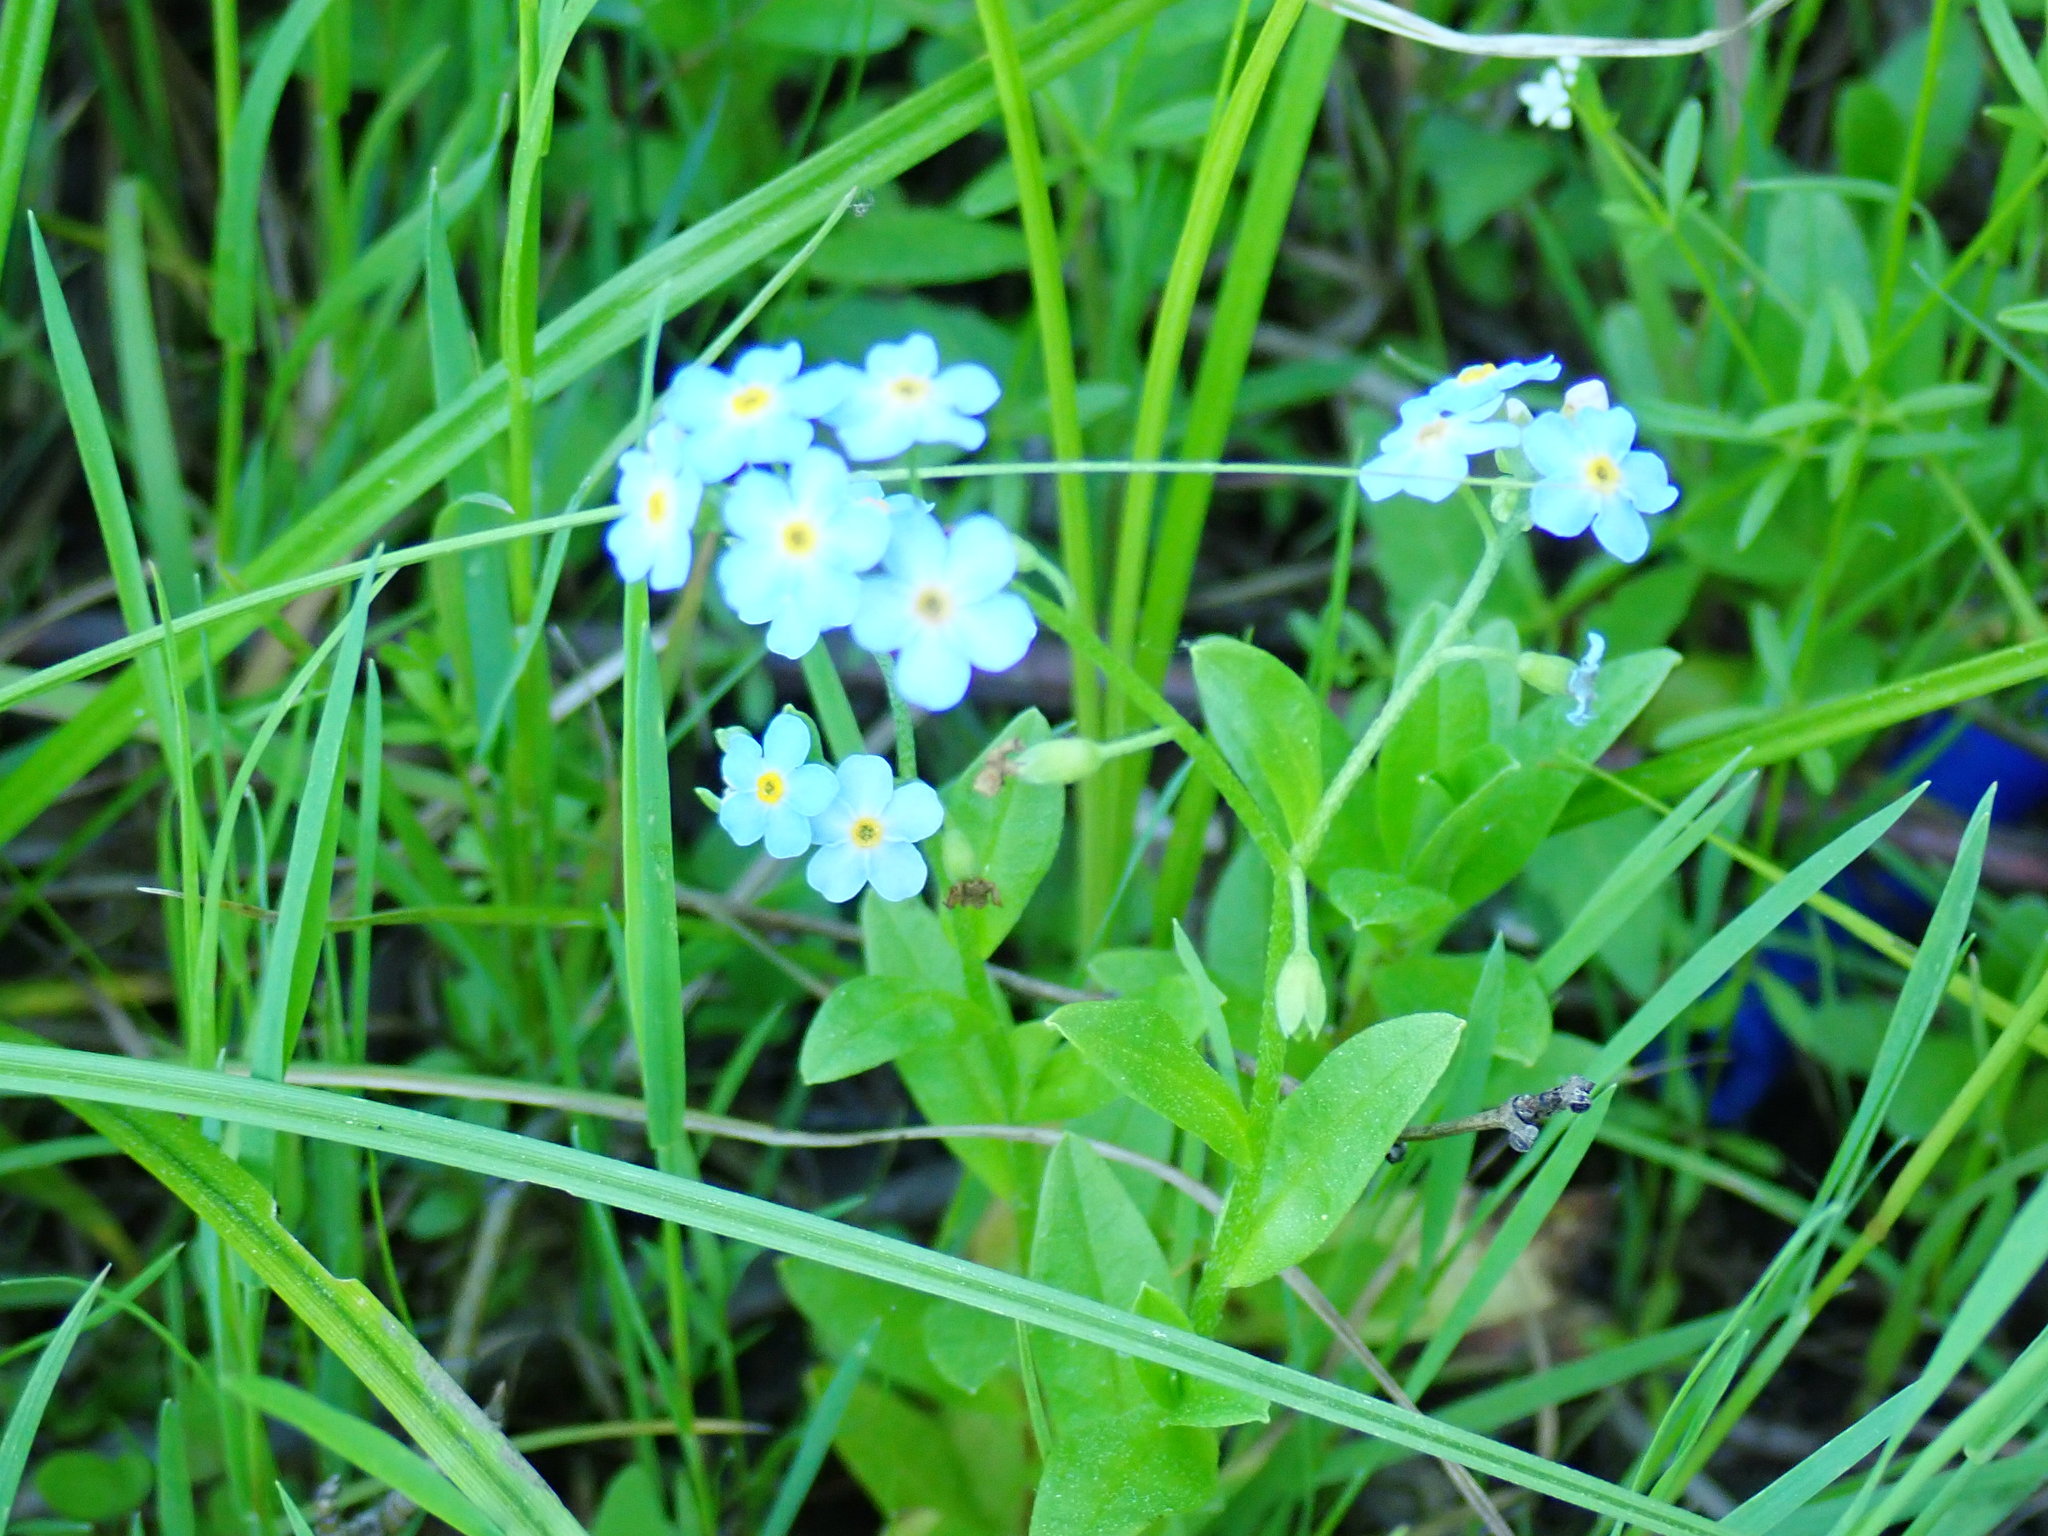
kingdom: Plantae
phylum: Tracheophyta
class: Magnoliopsida
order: Boraginales
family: Boraginaceae
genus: Myosotis
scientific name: Myosotis scorpioides
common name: Water forget-me-not
